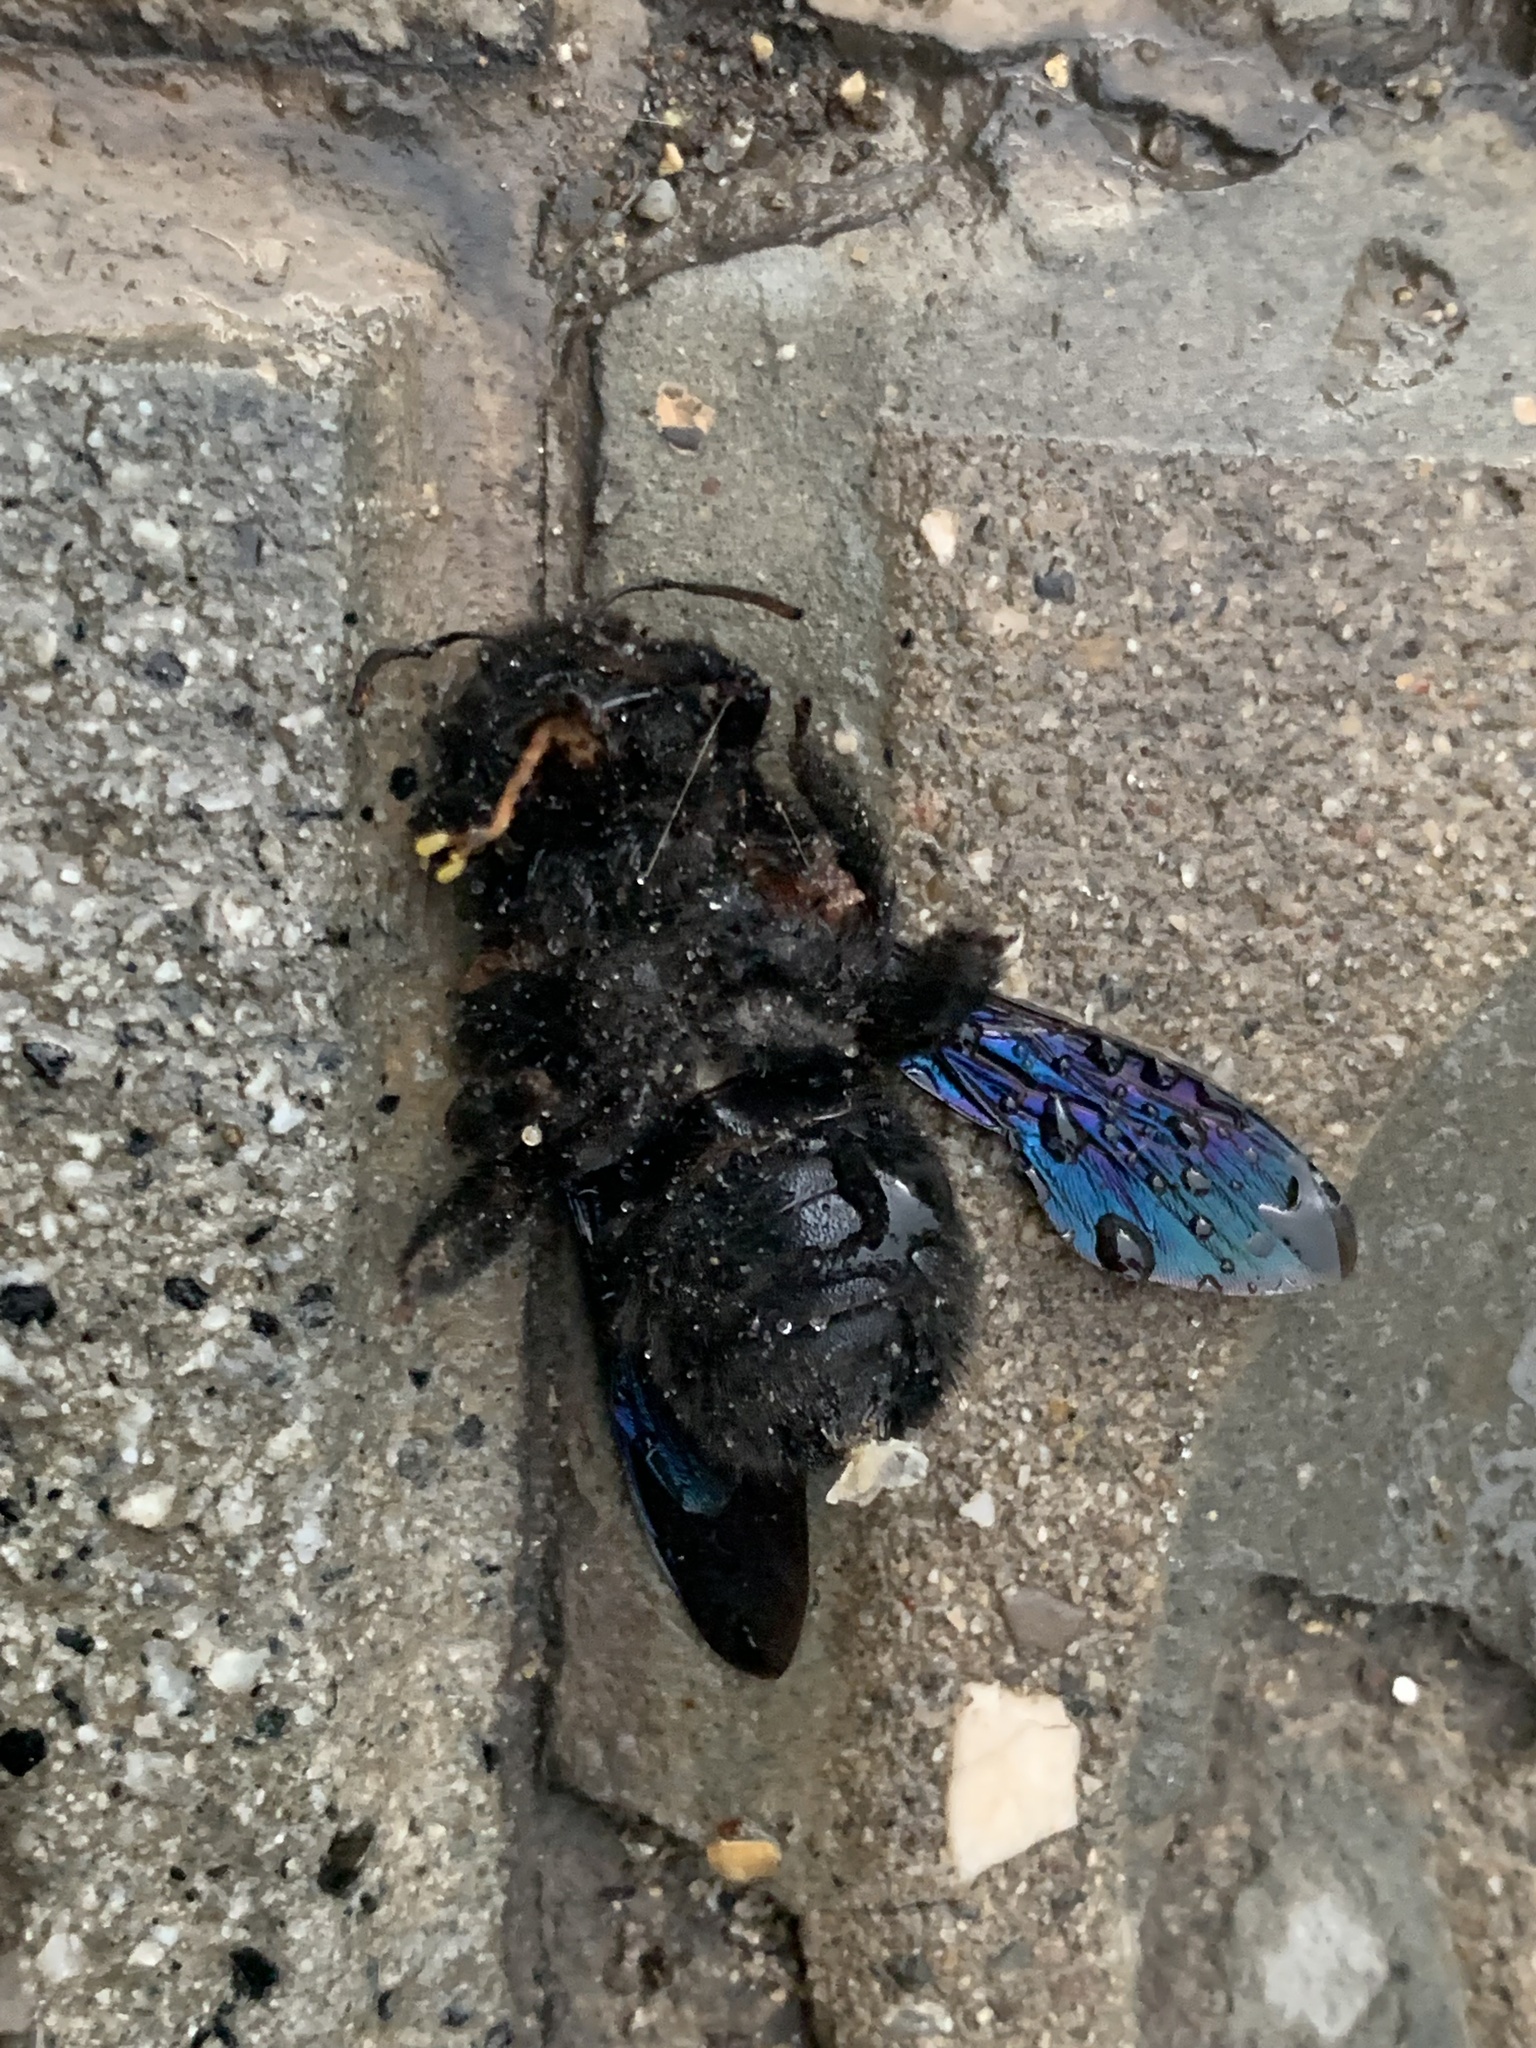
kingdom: Animalia
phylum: Arthropoda
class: Insecta
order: Hymenoptera
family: Apidae
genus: Xylocopa
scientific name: Xylocopa violacea
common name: Violet carpenter bee
